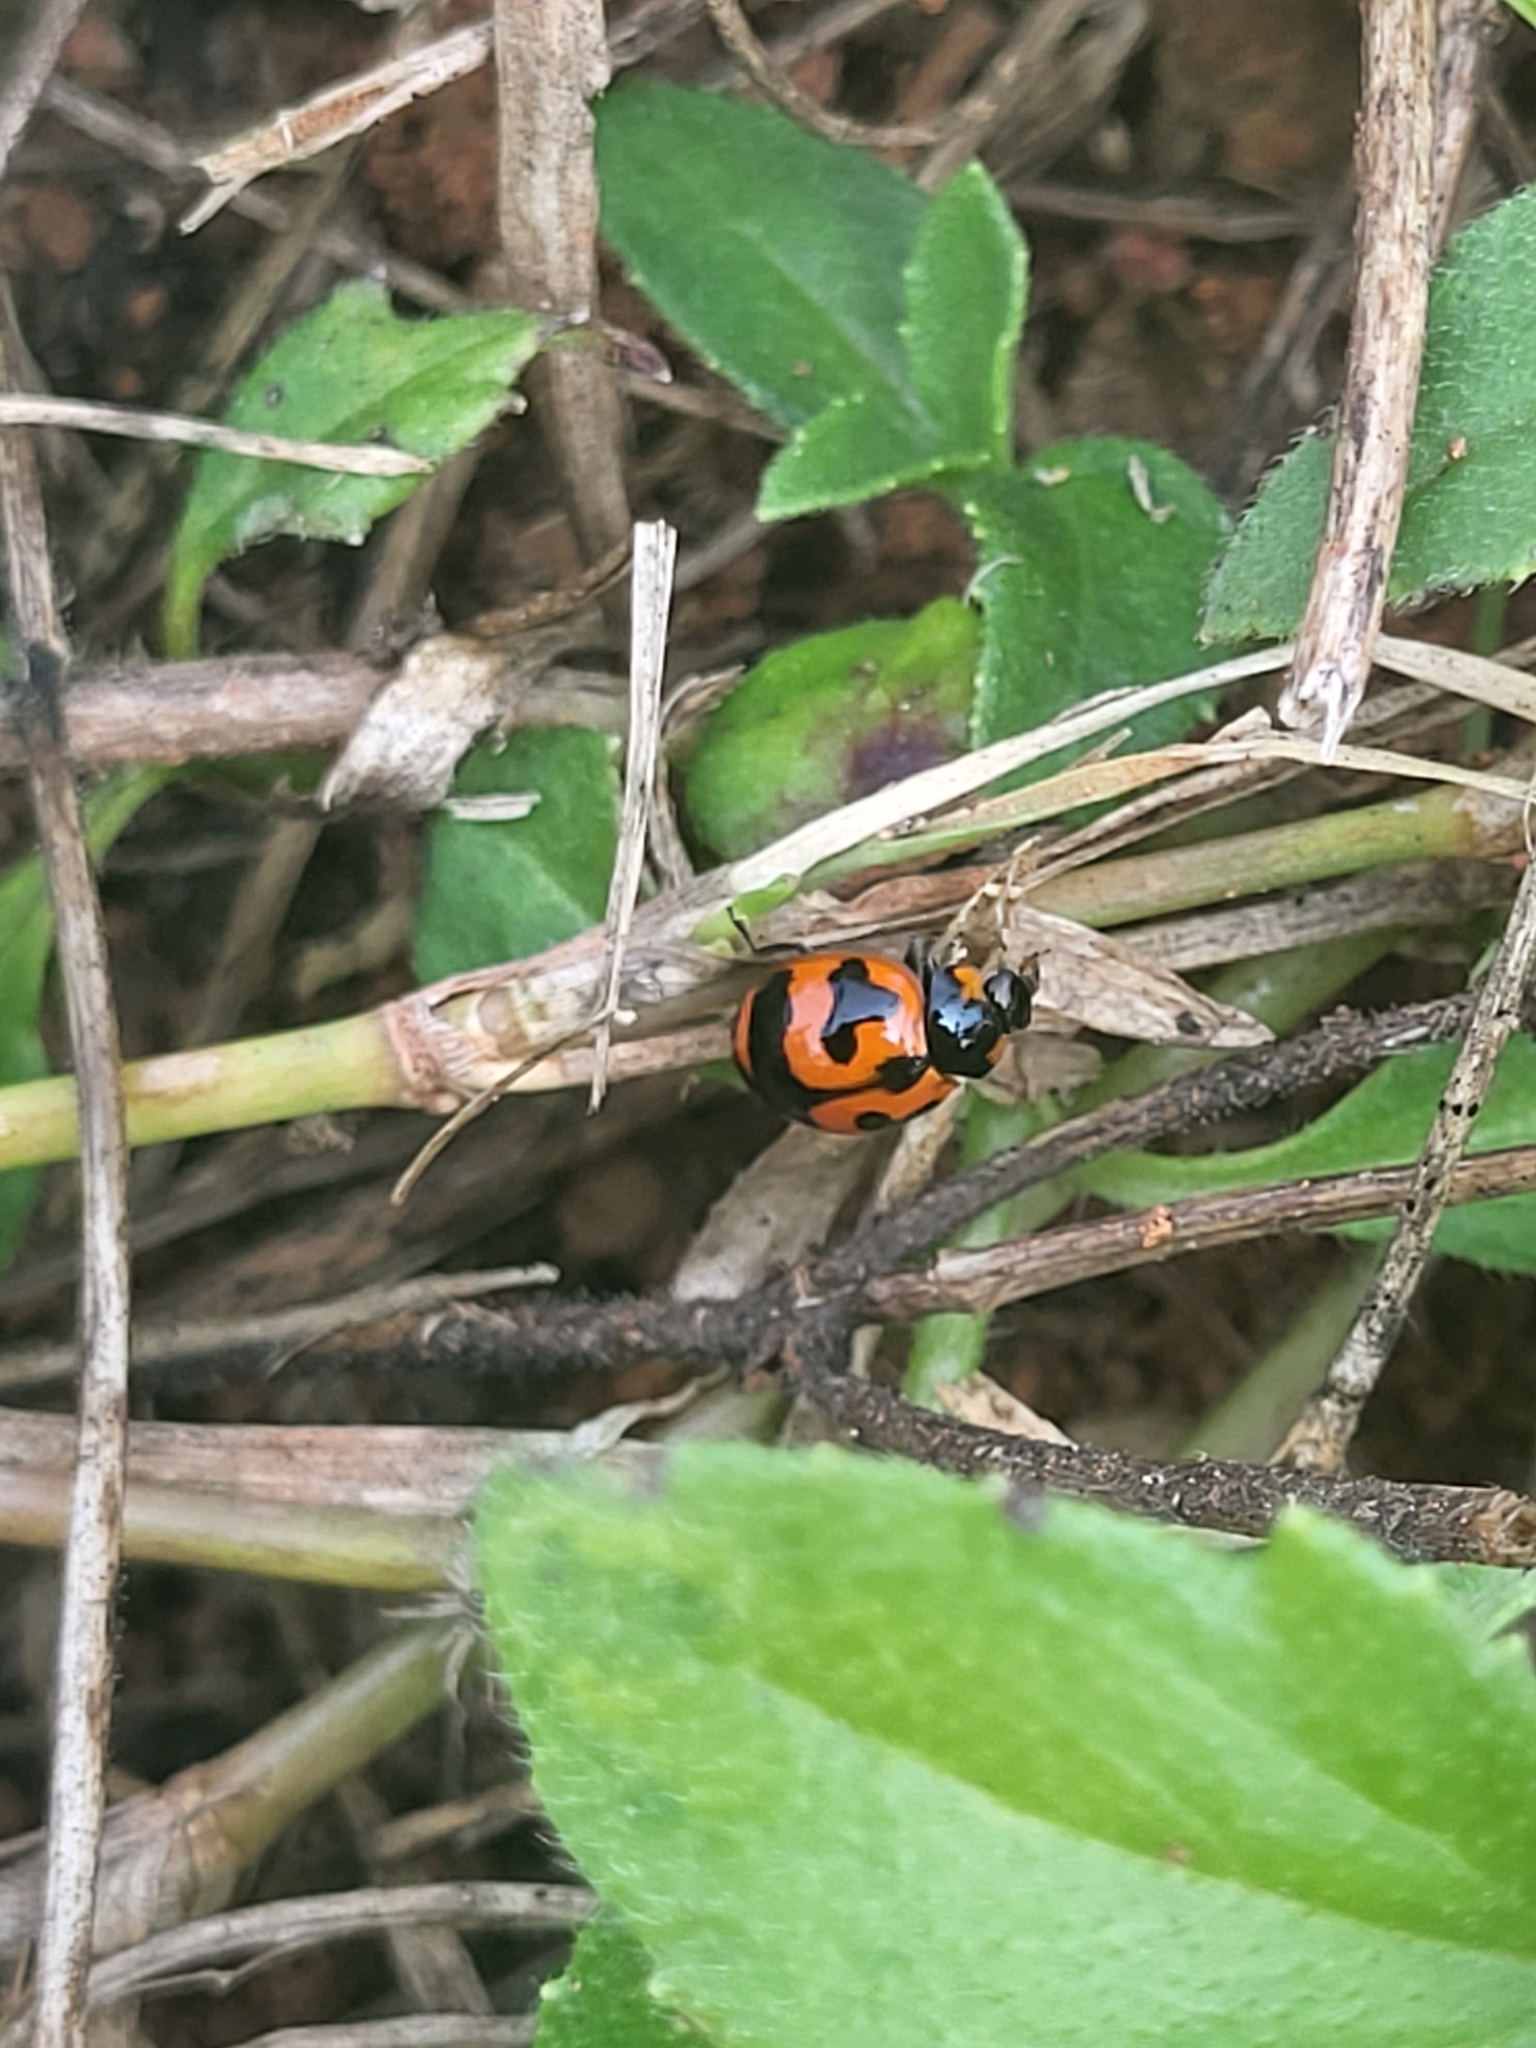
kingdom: Animalia
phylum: Arthropoda
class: Insecta
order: Coleoptera
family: Coccinellidae
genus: Coccinella
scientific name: Coccinella transversalis
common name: Transverse lady beetle
